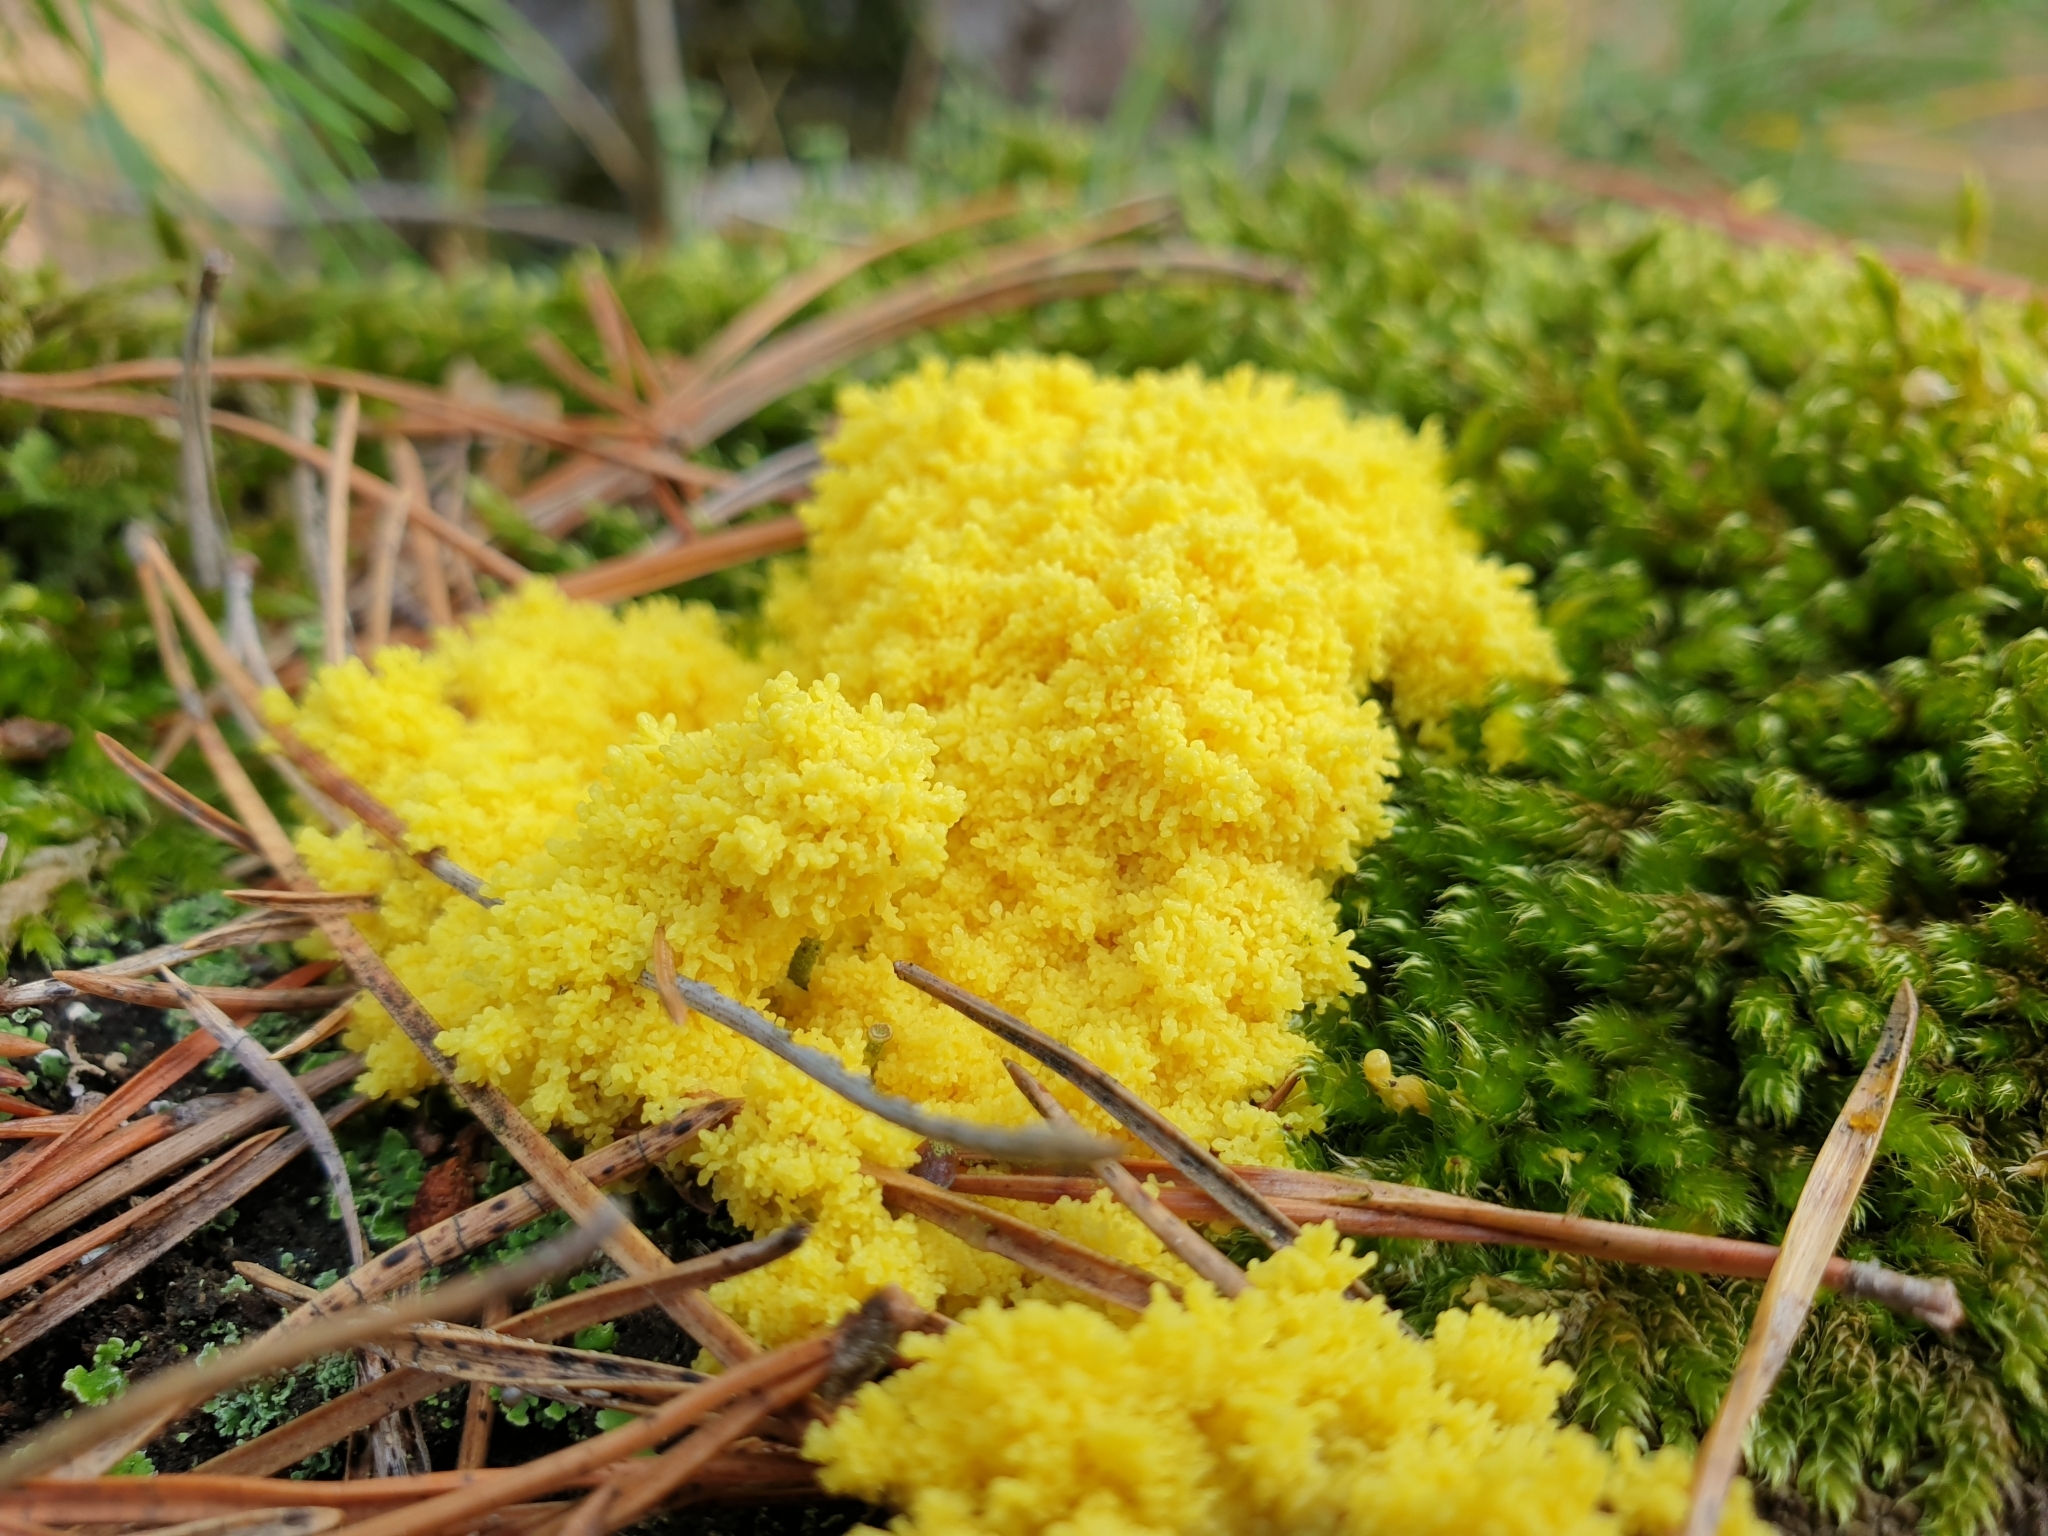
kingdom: Protozoa
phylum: Mycetozoa
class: Myxomycetes
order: Physarales
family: Physaraceae
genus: Fuligo
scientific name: Fuligo septica
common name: Dog vomit slime mold
